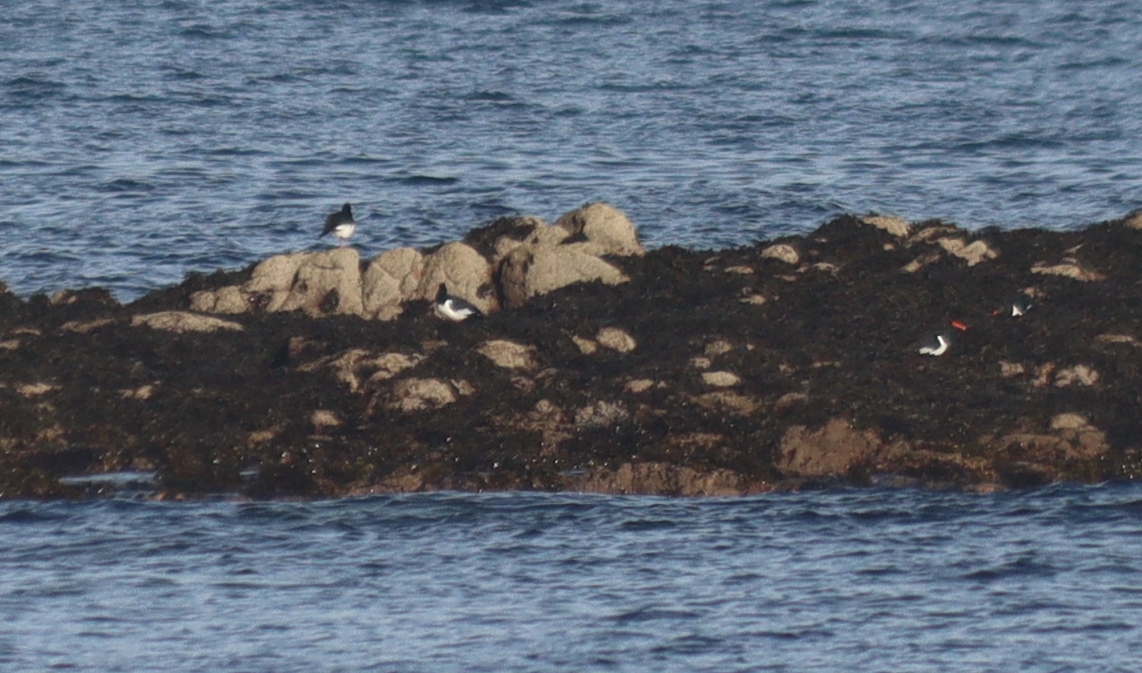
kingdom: Animalia
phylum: Chordata
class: Aves
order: Charadriiformes
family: Haematopodidae
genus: Haematopus
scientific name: Haematopus ostralegus
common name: Eurasian oystercatcher
